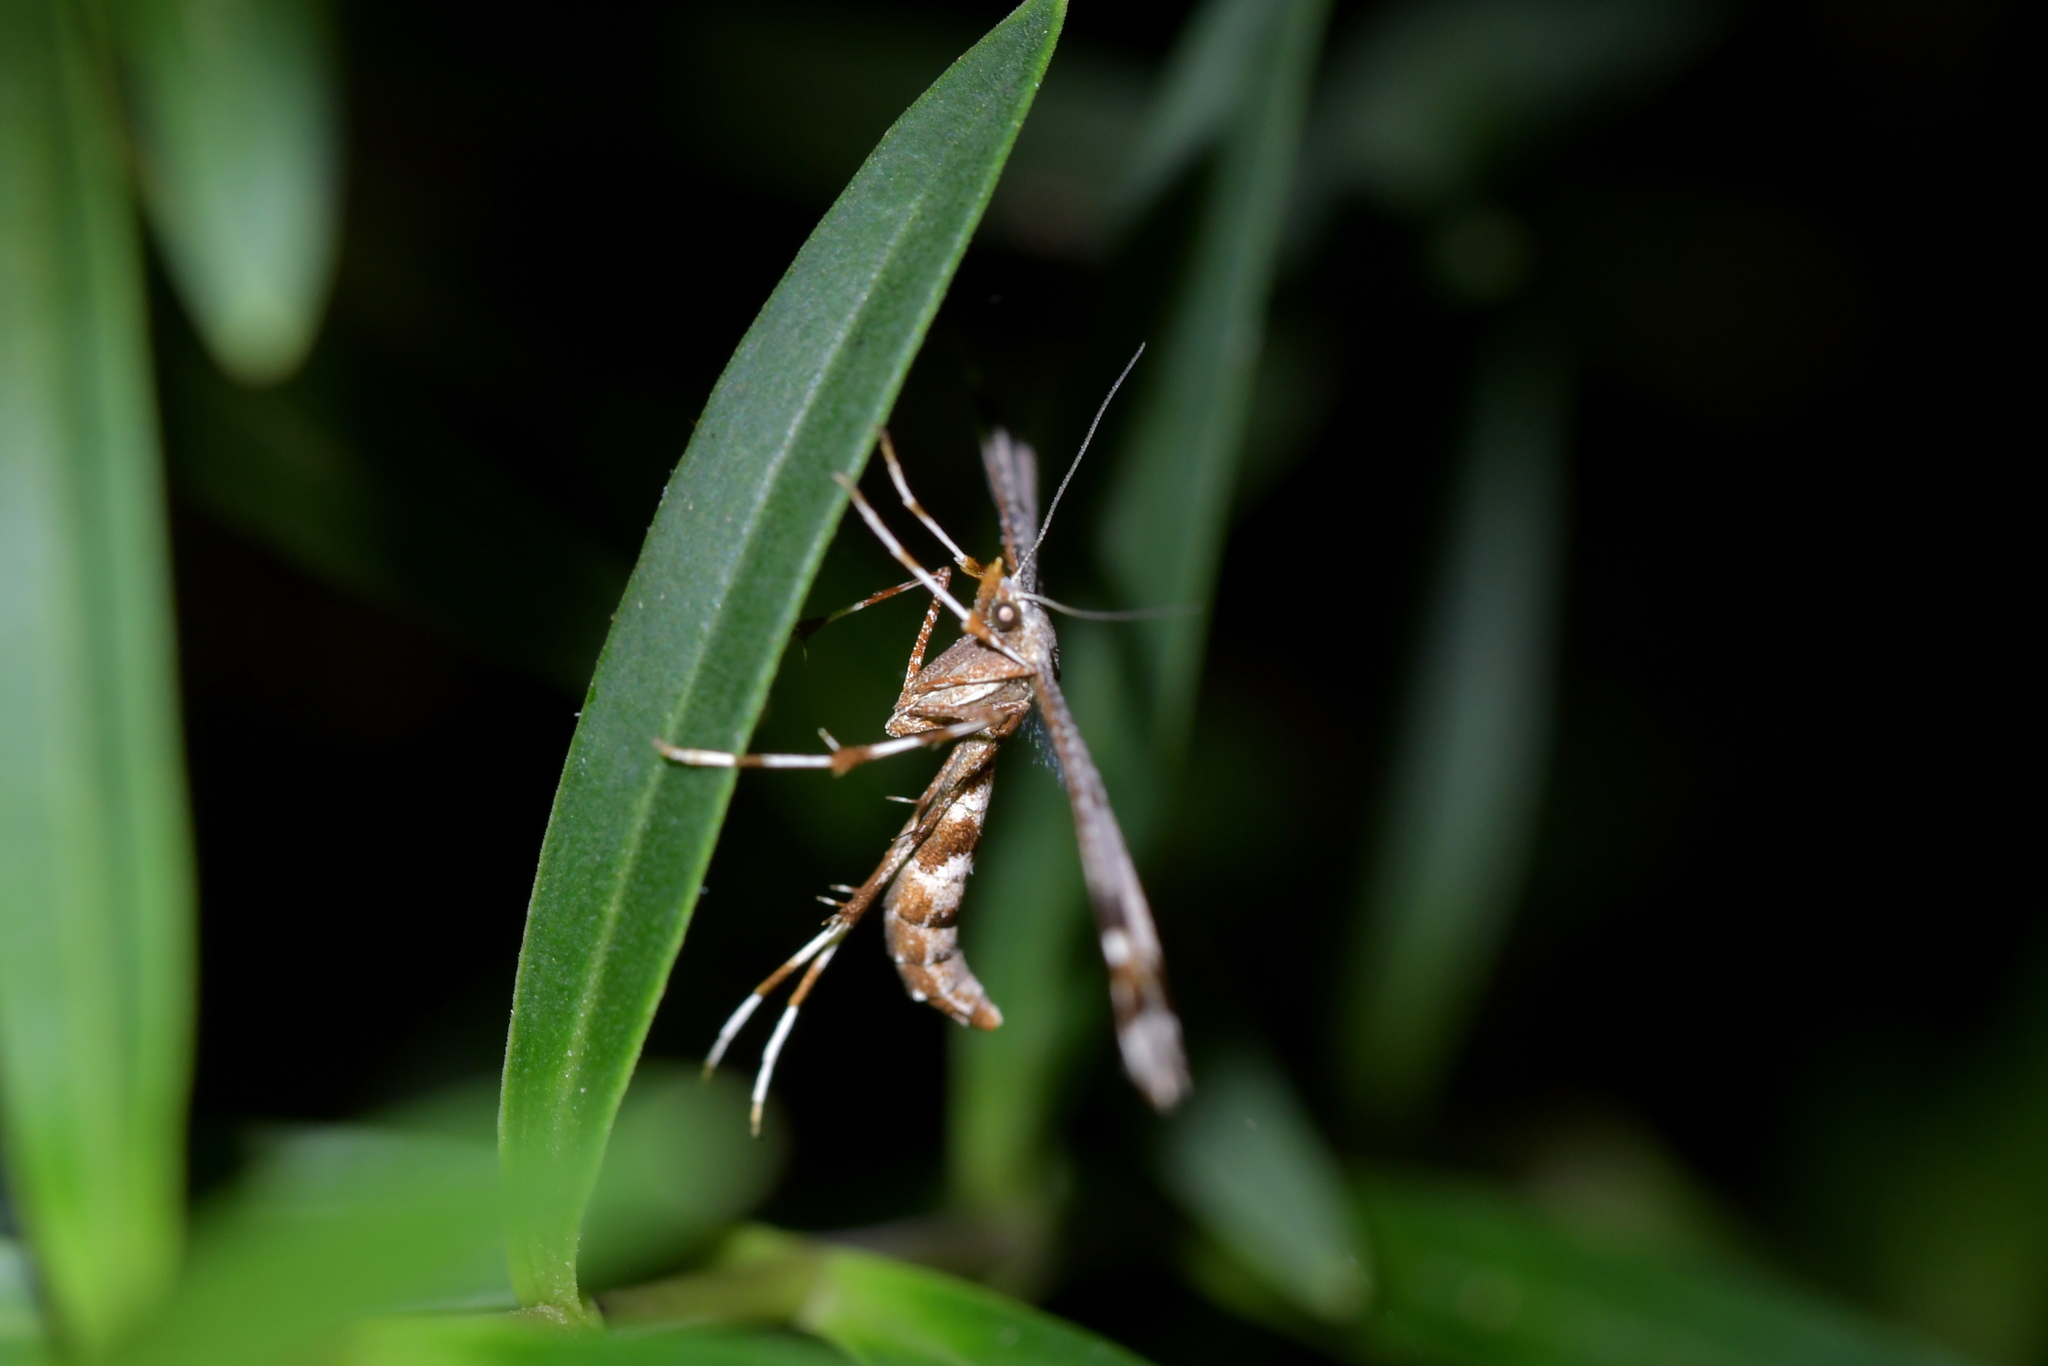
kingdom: Animalia
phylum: Arthropoda
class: Insecta
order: Lepidoptera
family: Pterophoridae
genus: Amblyptilia
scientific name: Amblyptilia falcatalis
